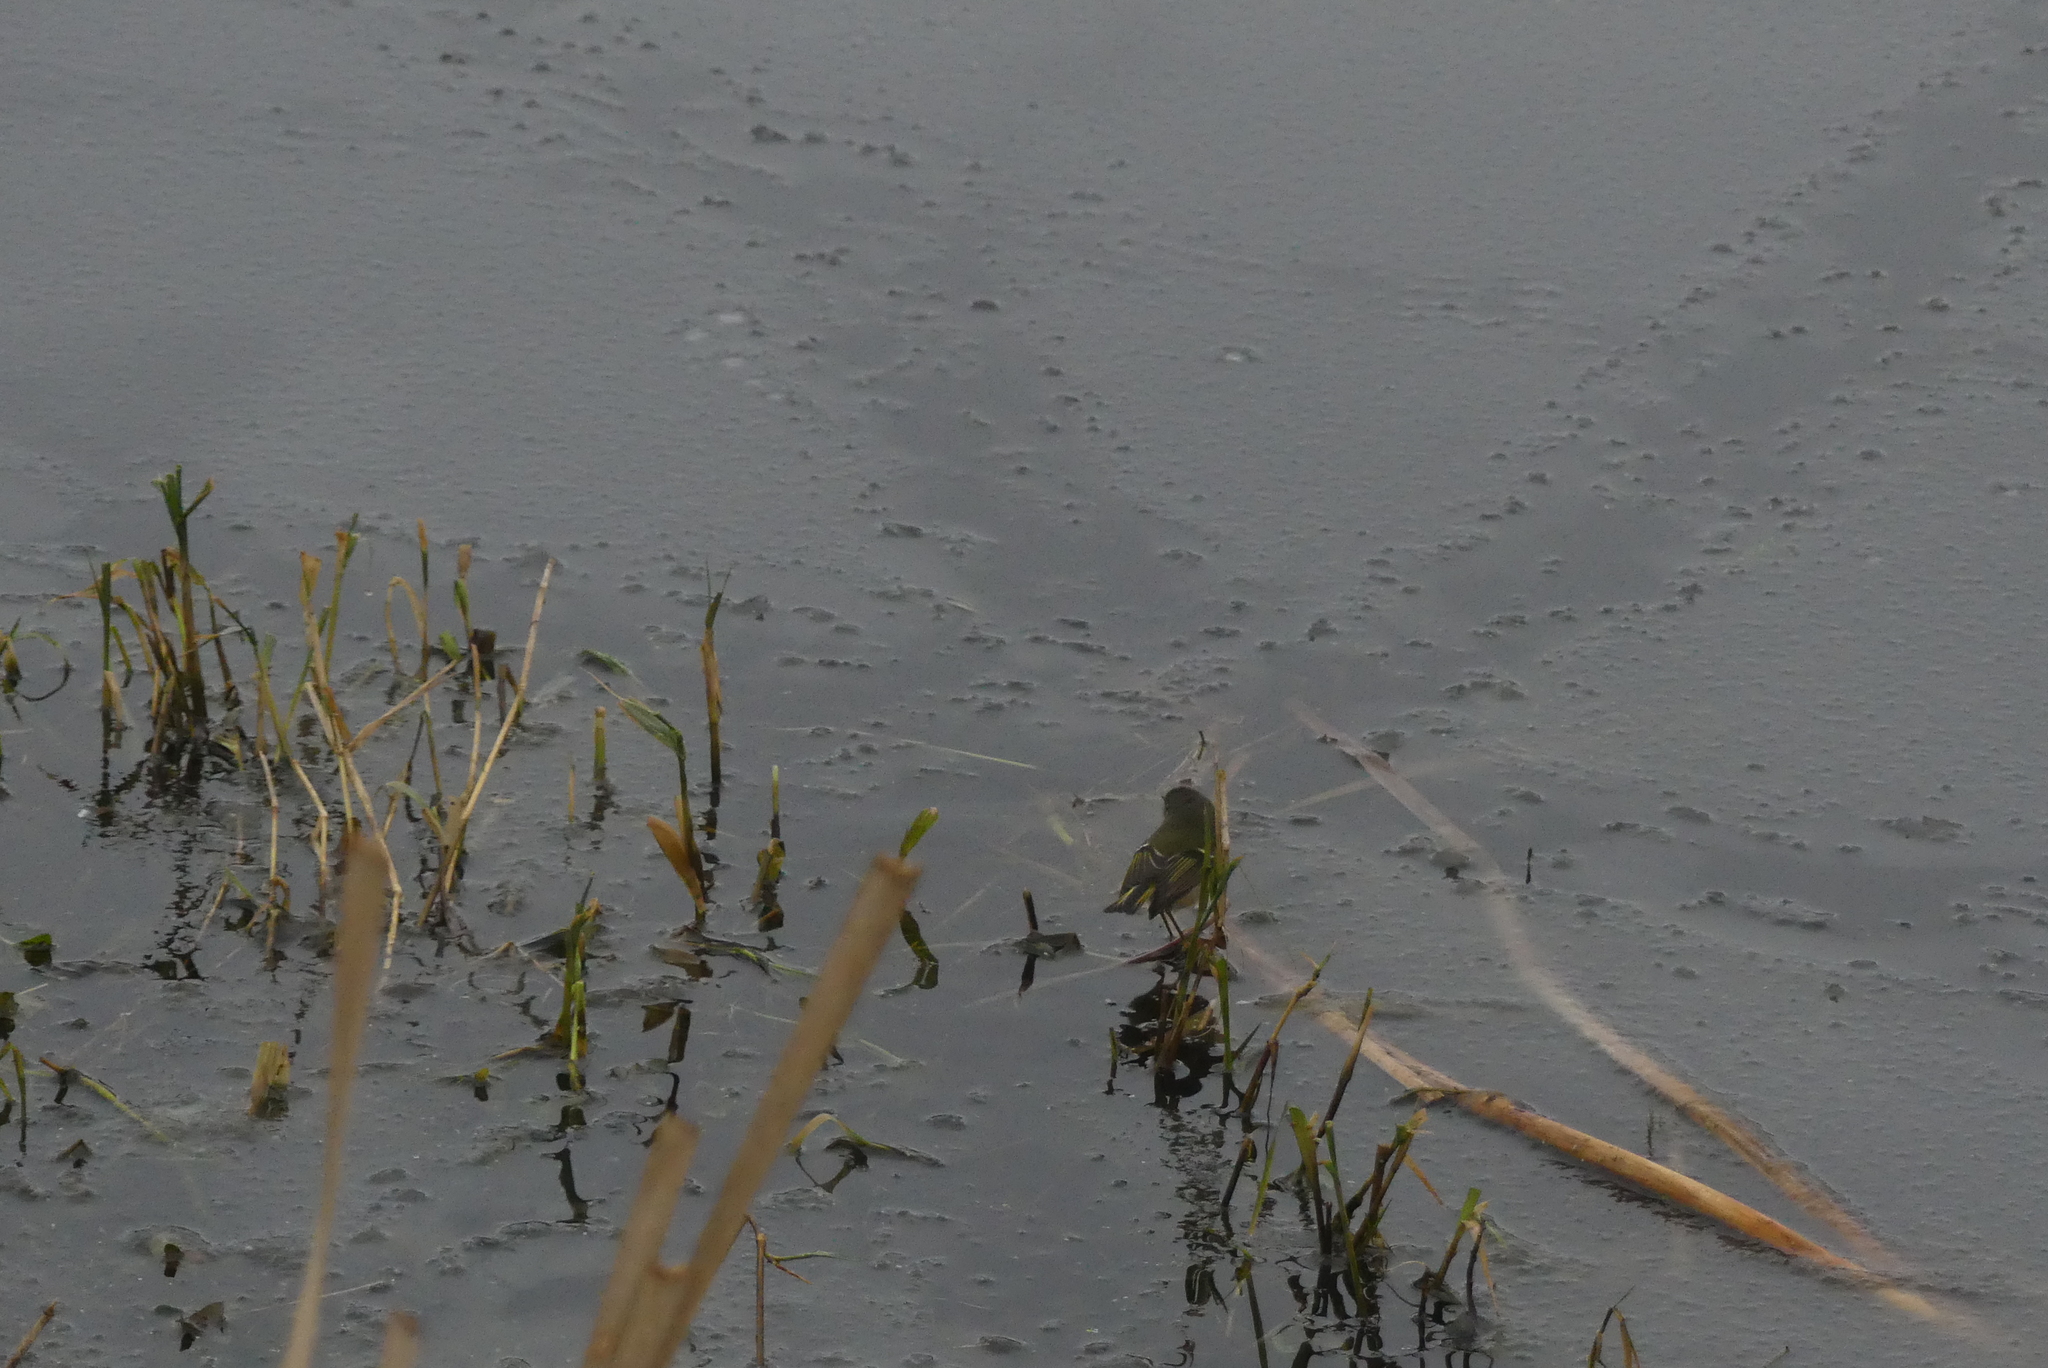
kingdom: Animalia
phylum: Chordata
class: Aves
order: Passeriformes
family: Regulidae
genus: Regulus
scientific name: Regulus calendula
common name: Ruby-crowned kinglet
